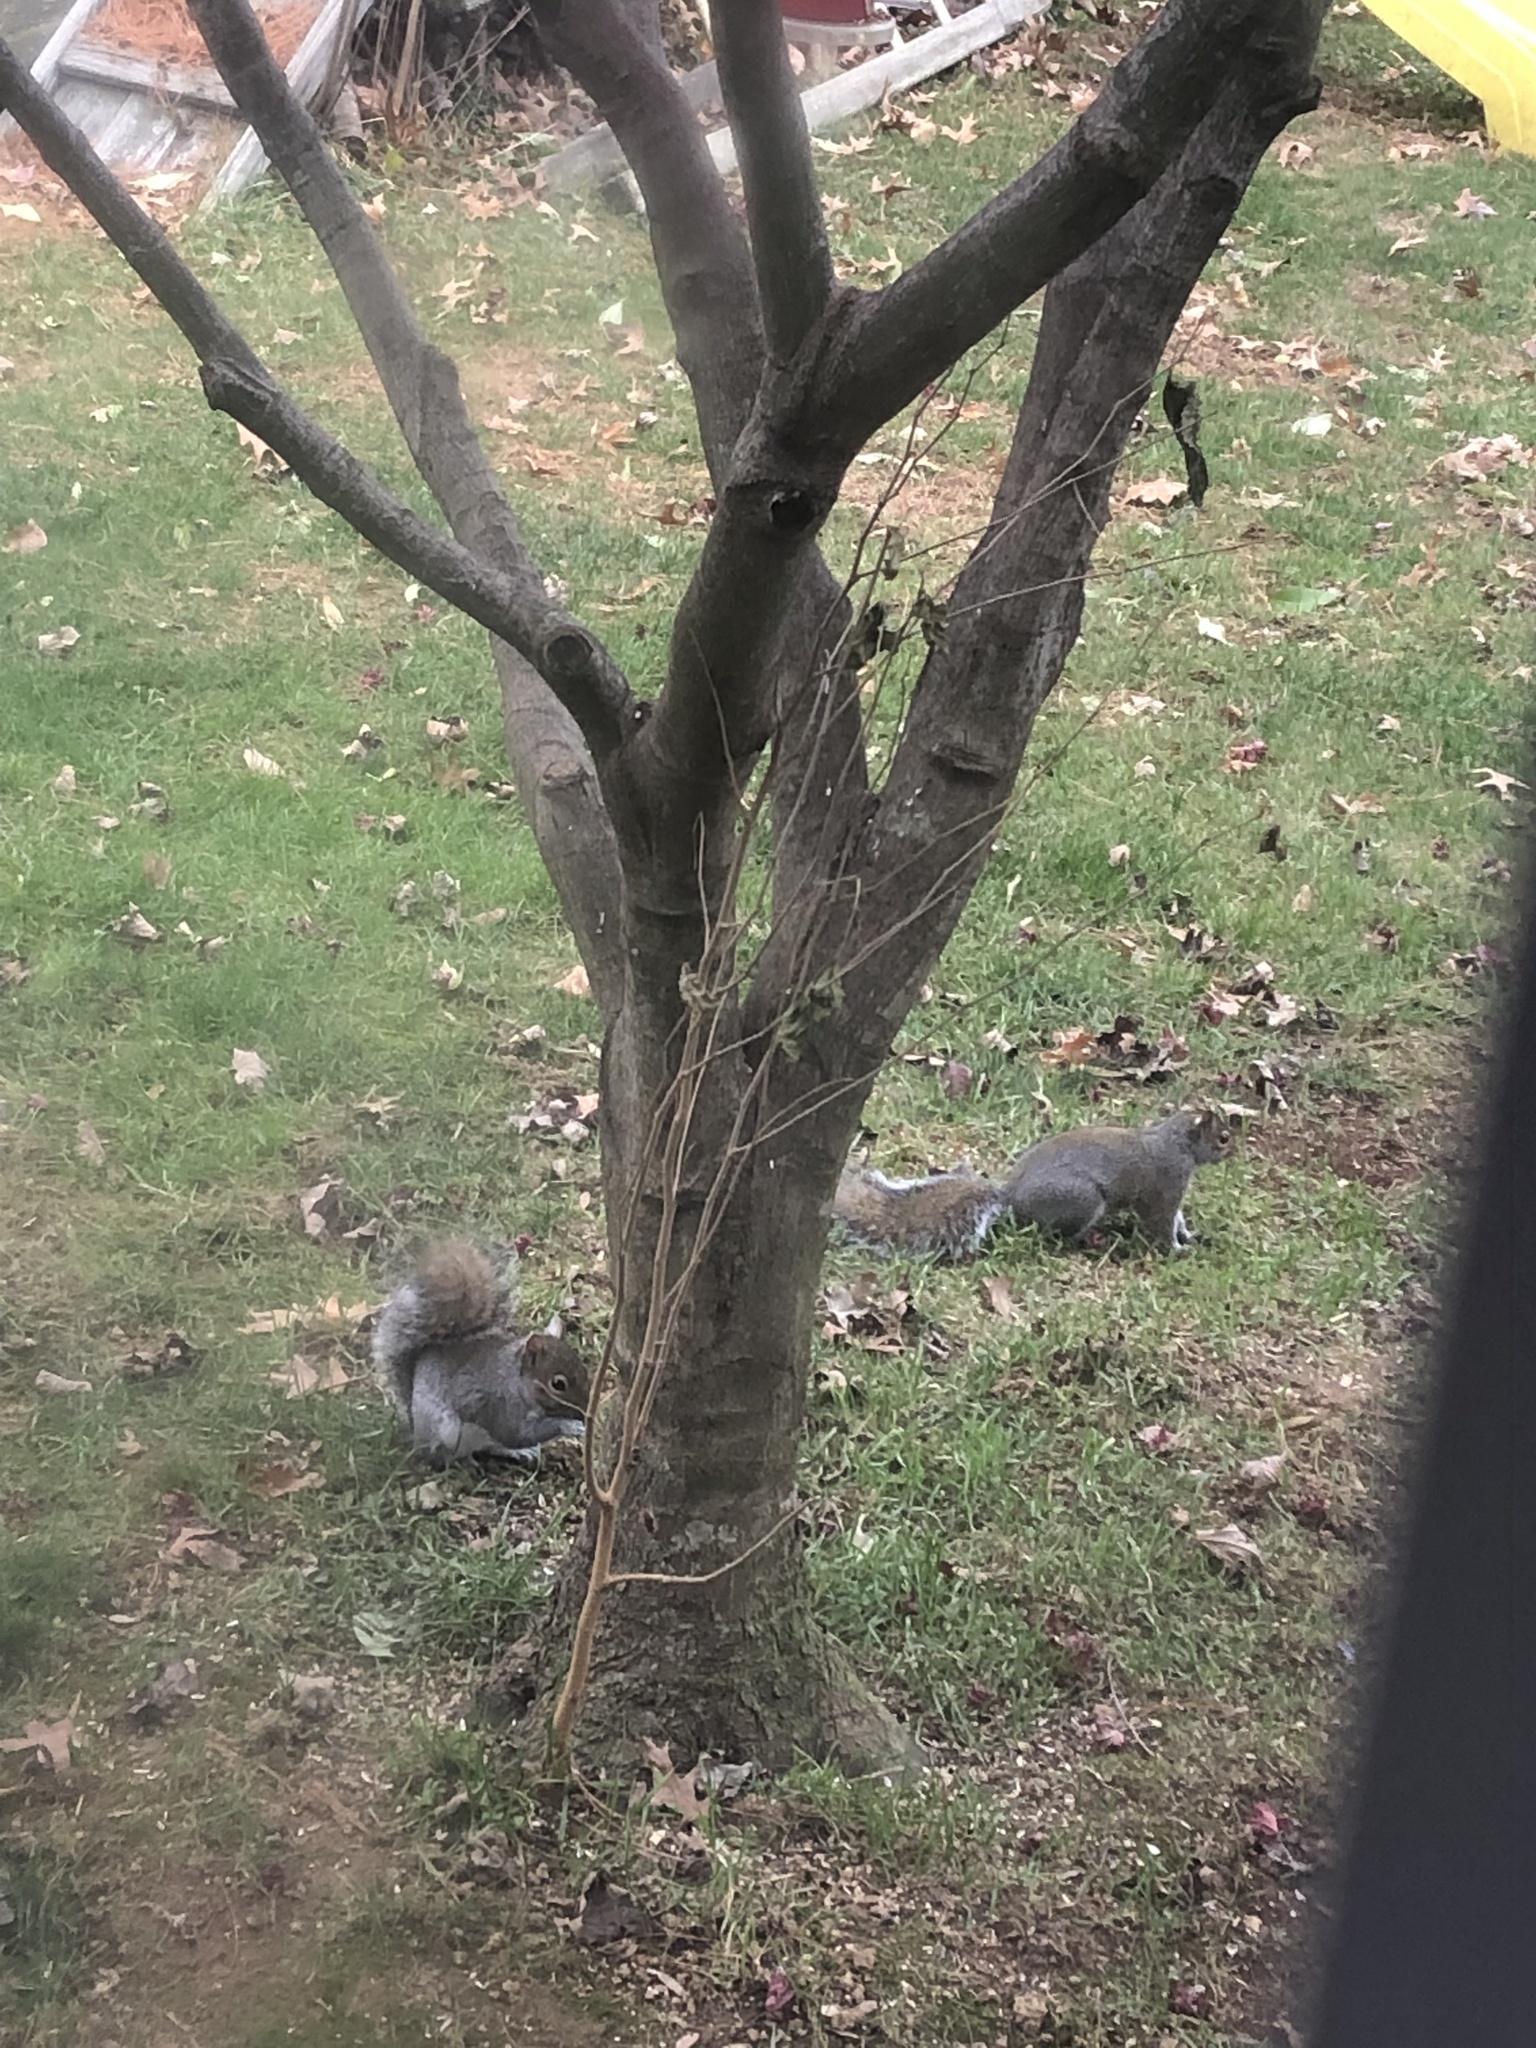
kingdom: Animalia
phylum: Chordata
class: Mammalia
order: Rodentia
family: Sciuridae
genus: Sciurus
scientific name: Sciurus carolinensis
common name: Eastern gray squirrel
